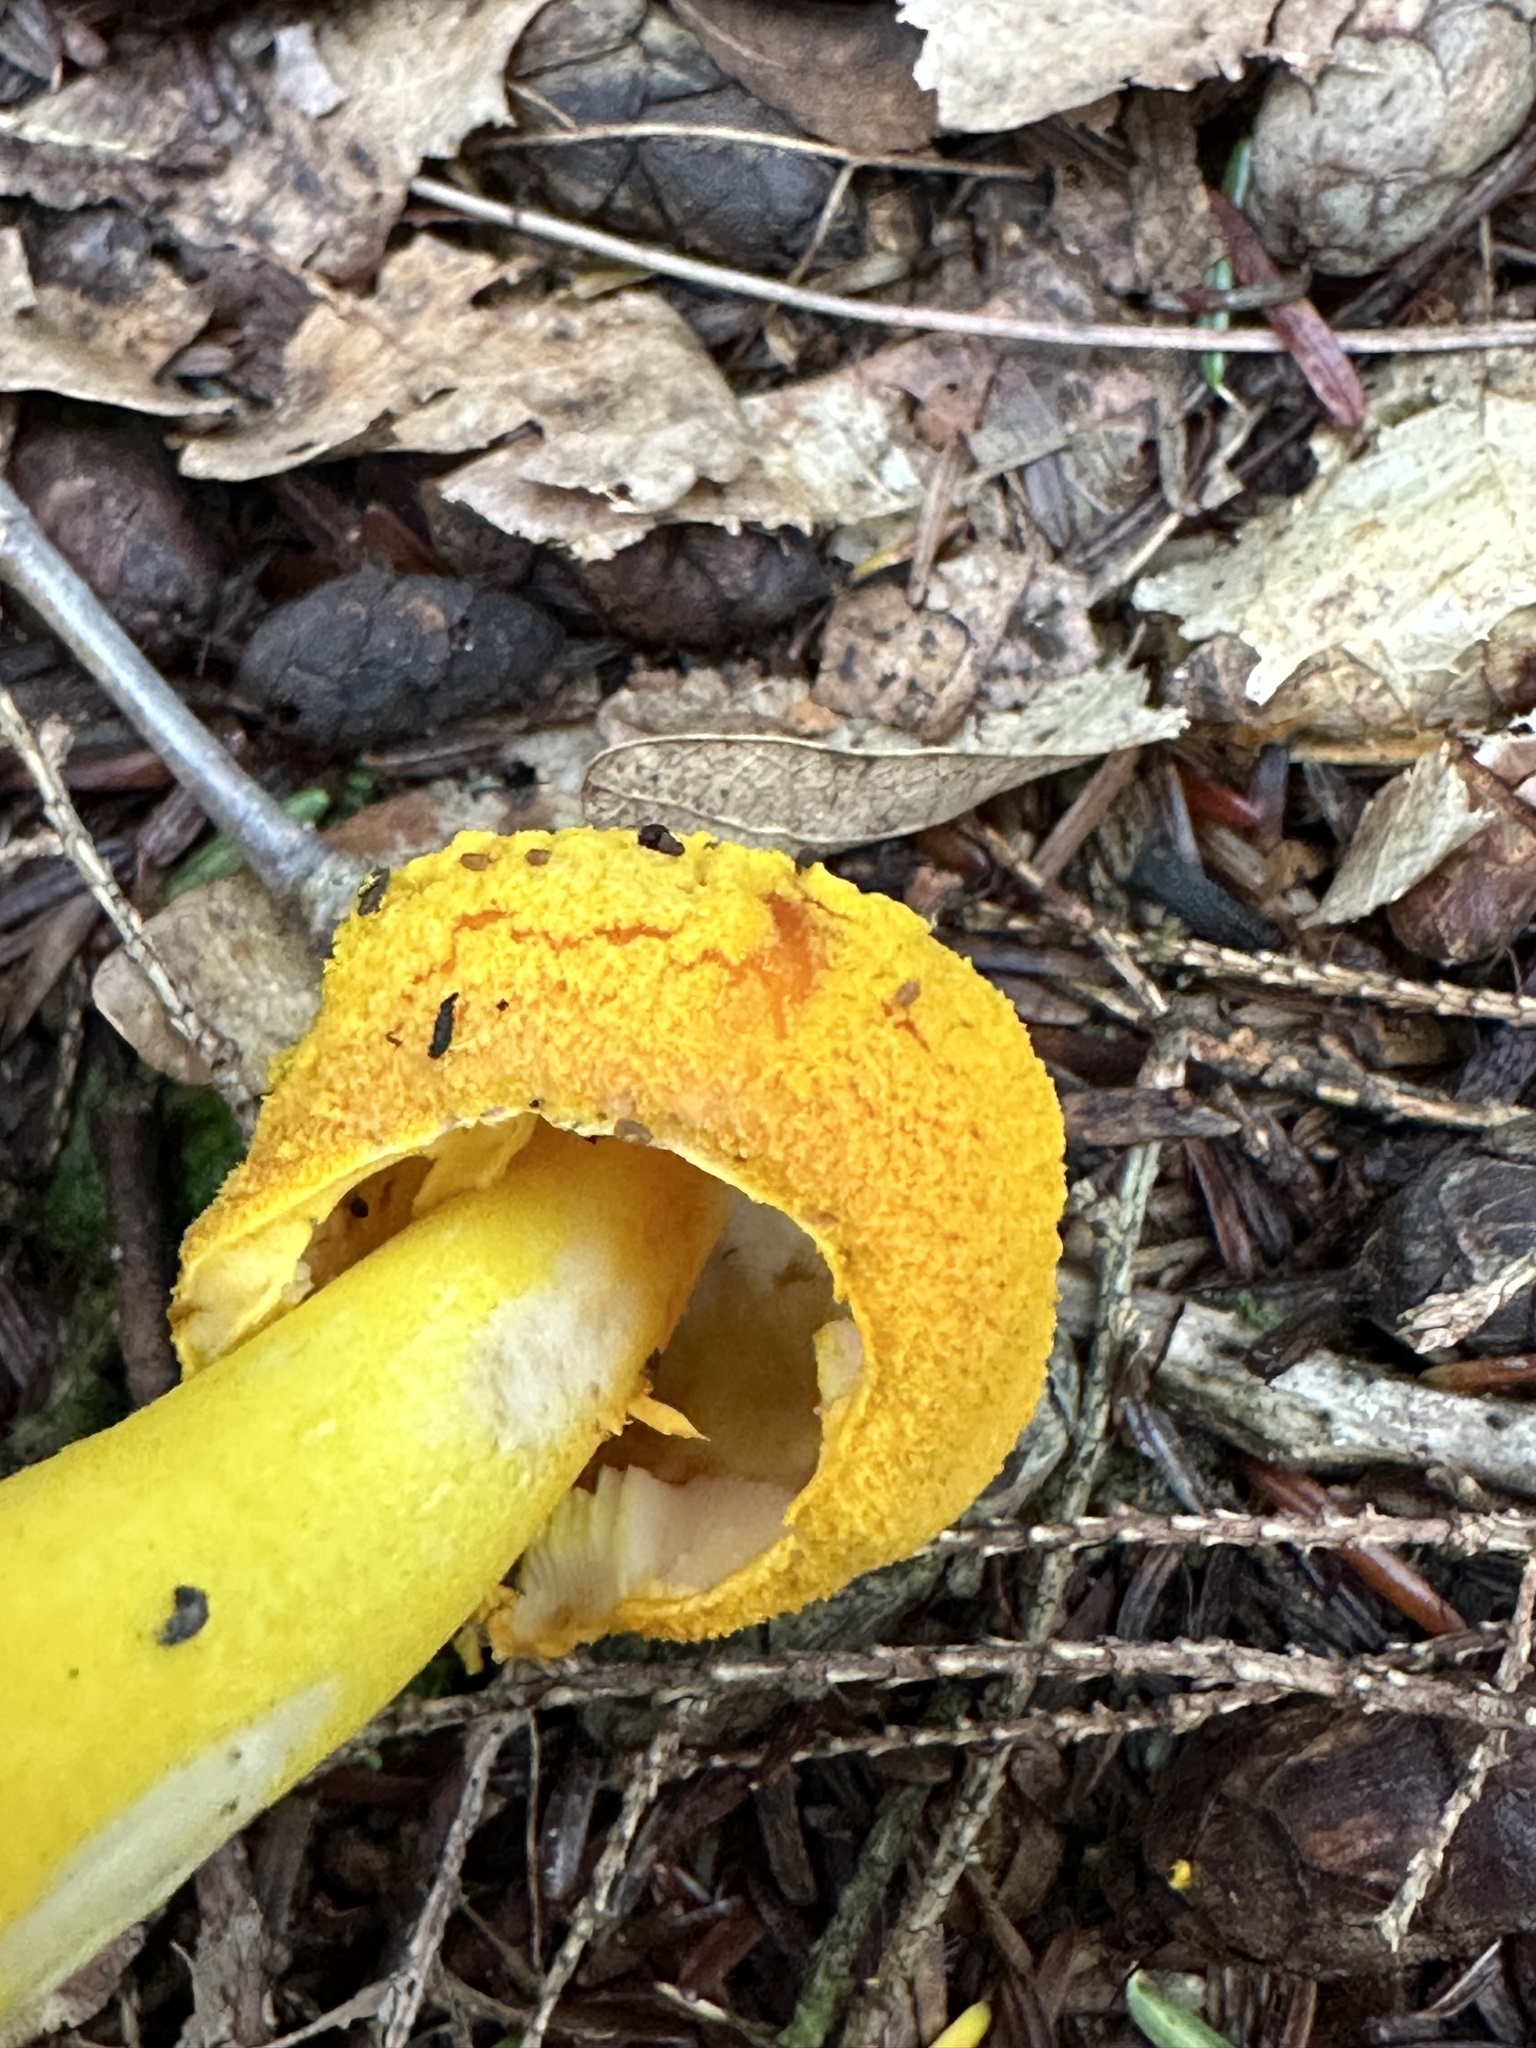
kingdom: Fungi
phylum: Basidiomycota
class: Agaricomycetes
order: Agaricales
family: Amanitaceae
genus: Amanita
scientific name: Amanita flavoconia
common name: Yellow patches
